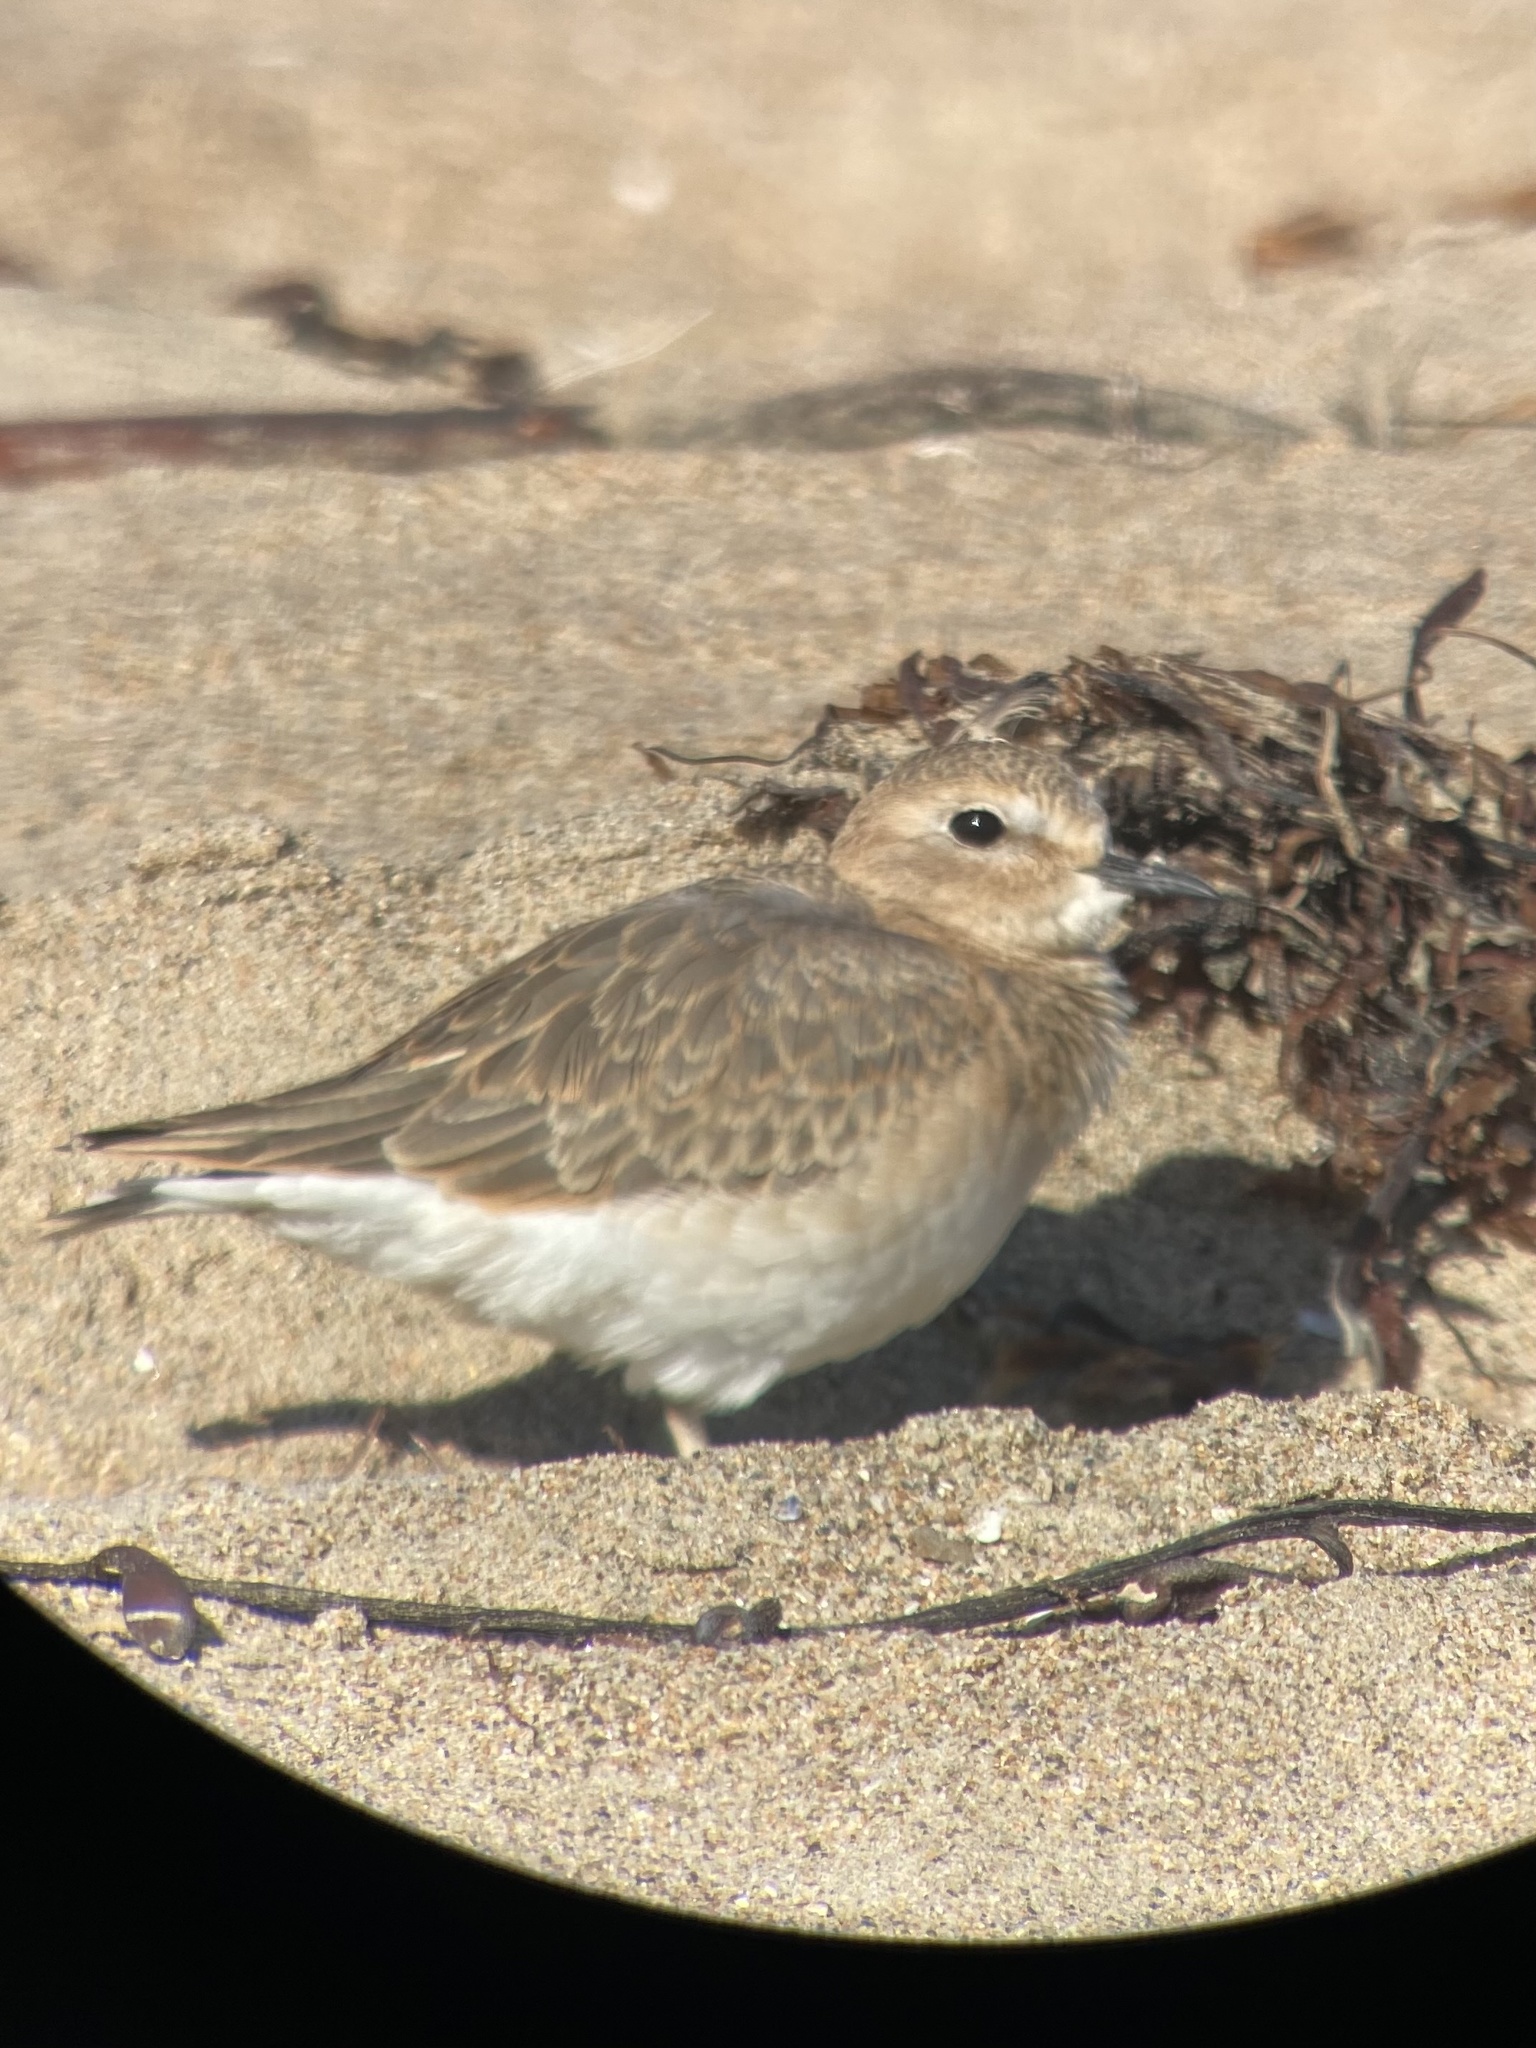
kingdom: Animalia
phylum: Chordata
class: Aves
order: Charadriiformes
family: Charadriidae
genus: Anarhynchus
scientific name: Anarhynchus
